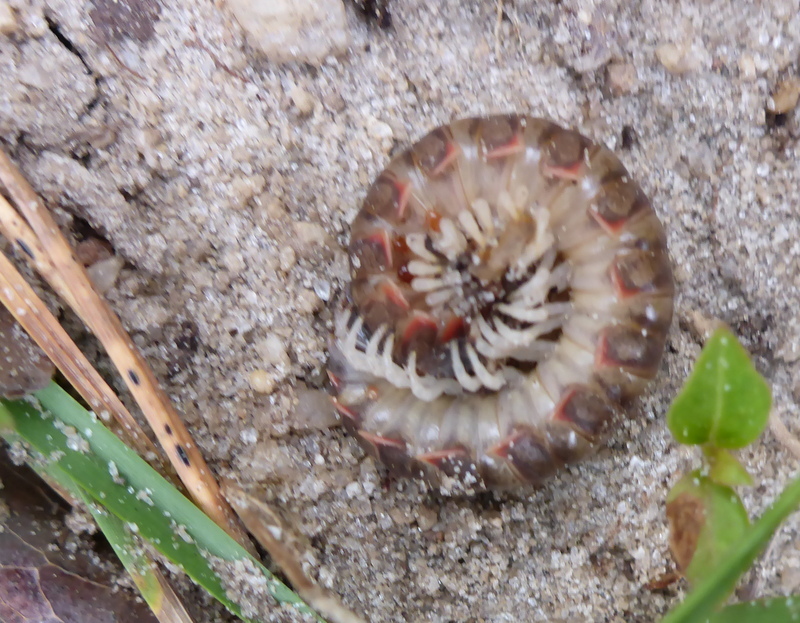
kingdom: Animalia
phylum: Arthropoda
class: Diplopoda
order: Polydesmida
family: Xystodesmidae
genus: Pleuroloma
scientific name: Pleuroloma plana
